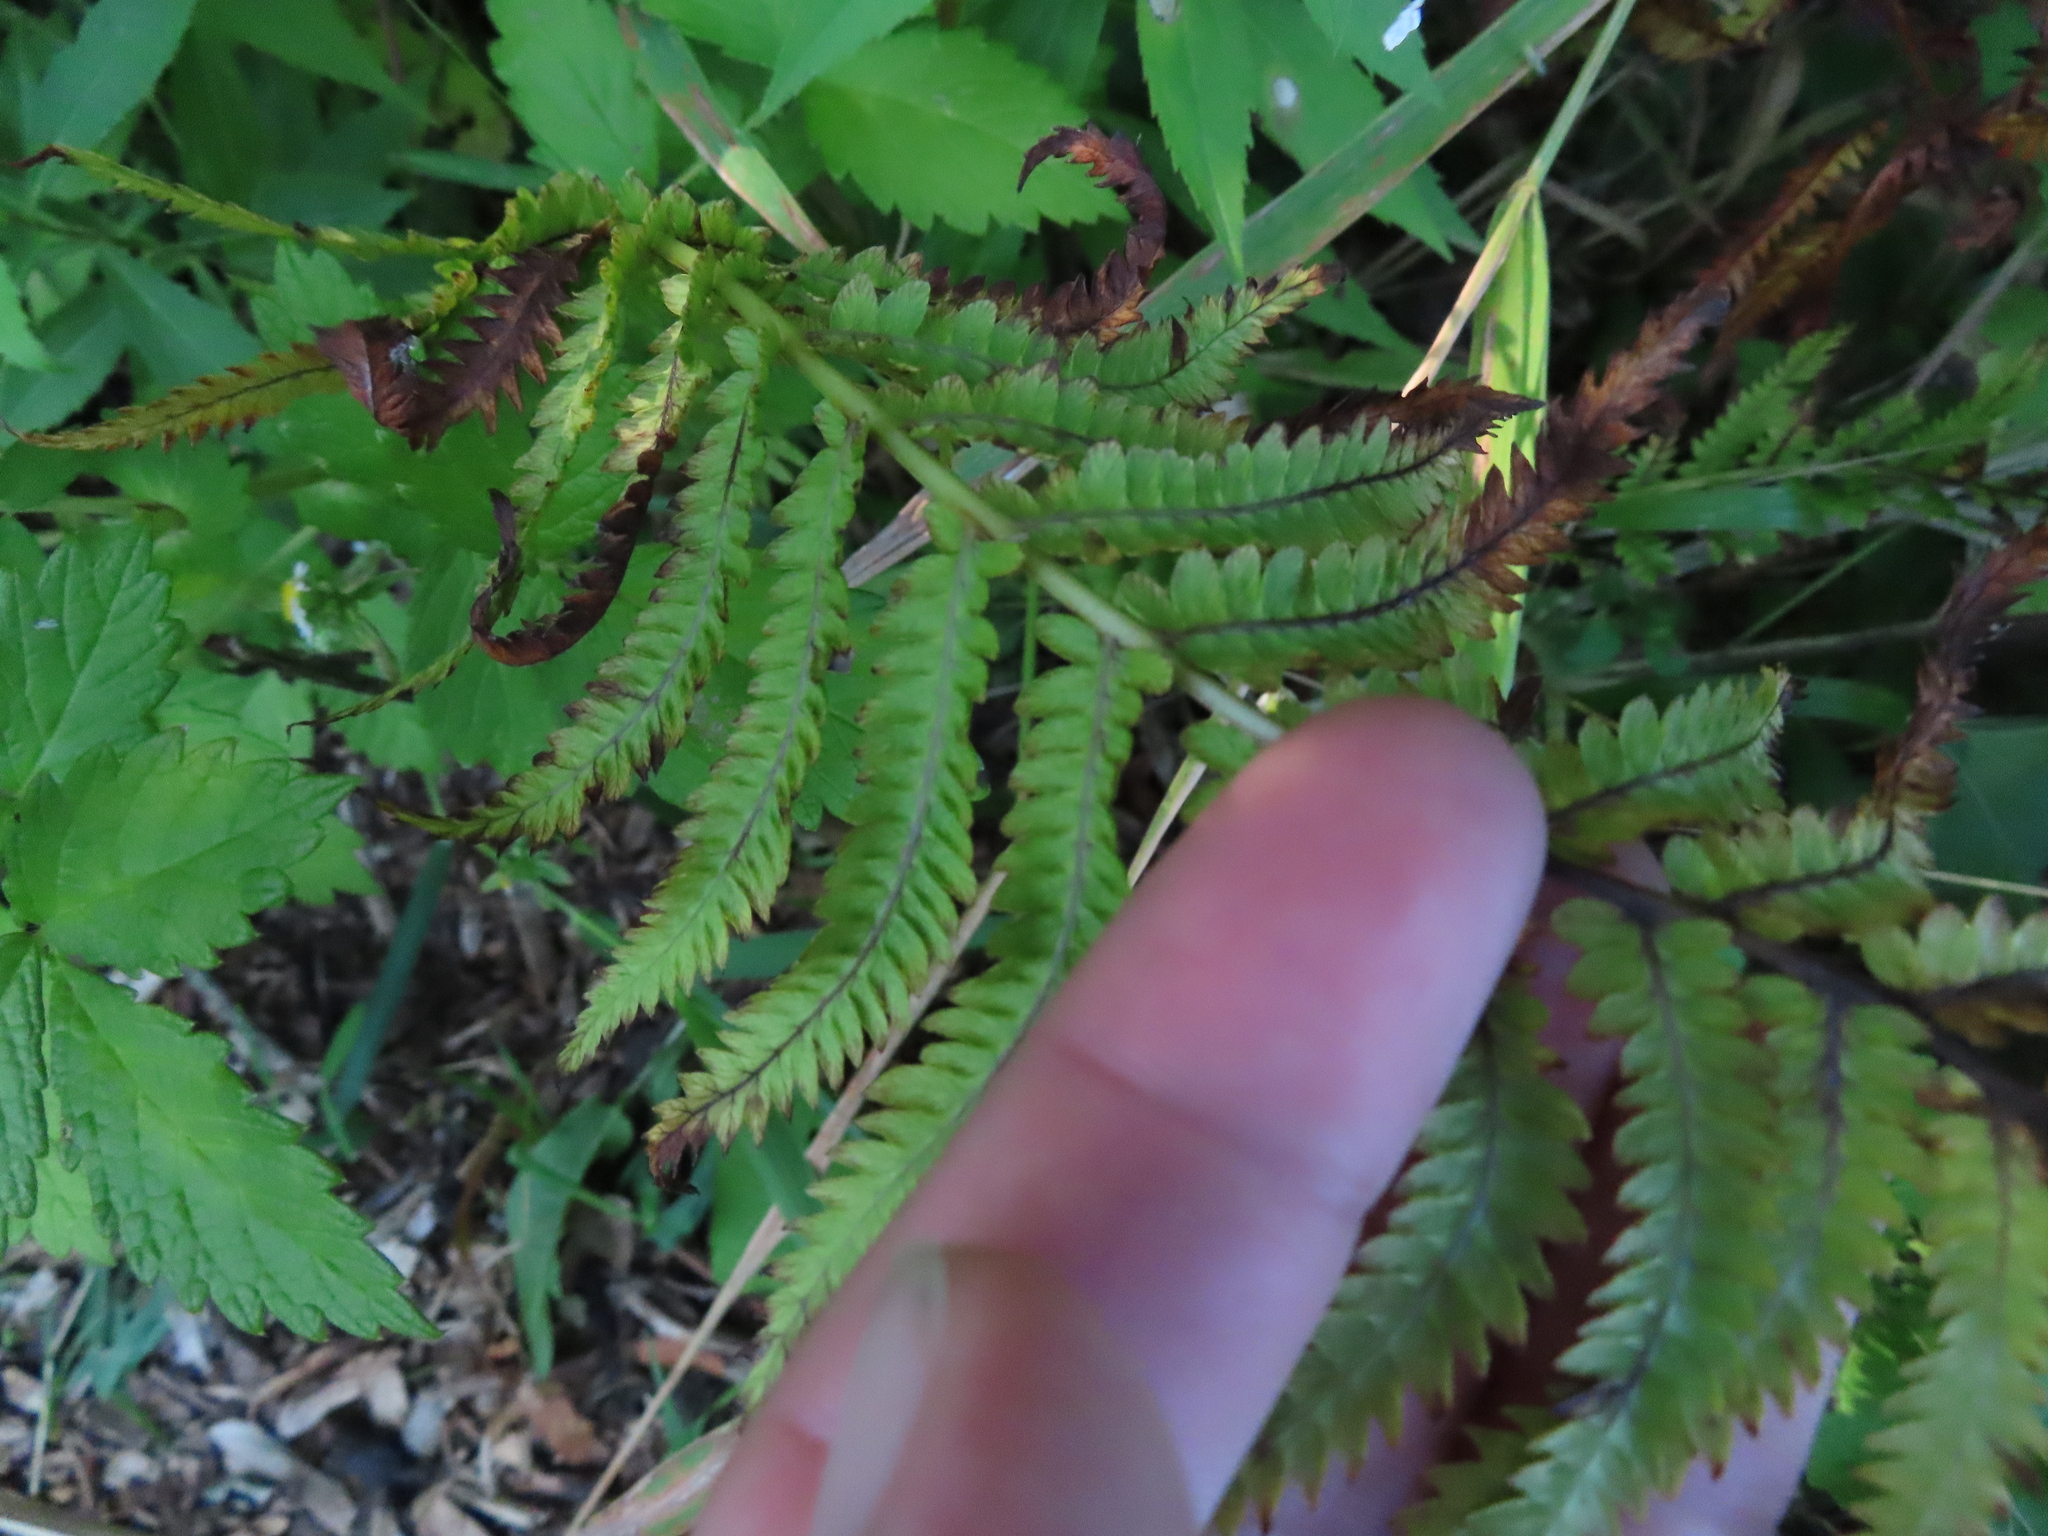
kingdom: Plantae
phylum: Tracheophyta
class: Polypodiopsida
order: Polypodiales
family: Onocleaceae
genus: Matteuccia
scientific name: Matteuccia struthiopteris
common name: Ostrich fern
